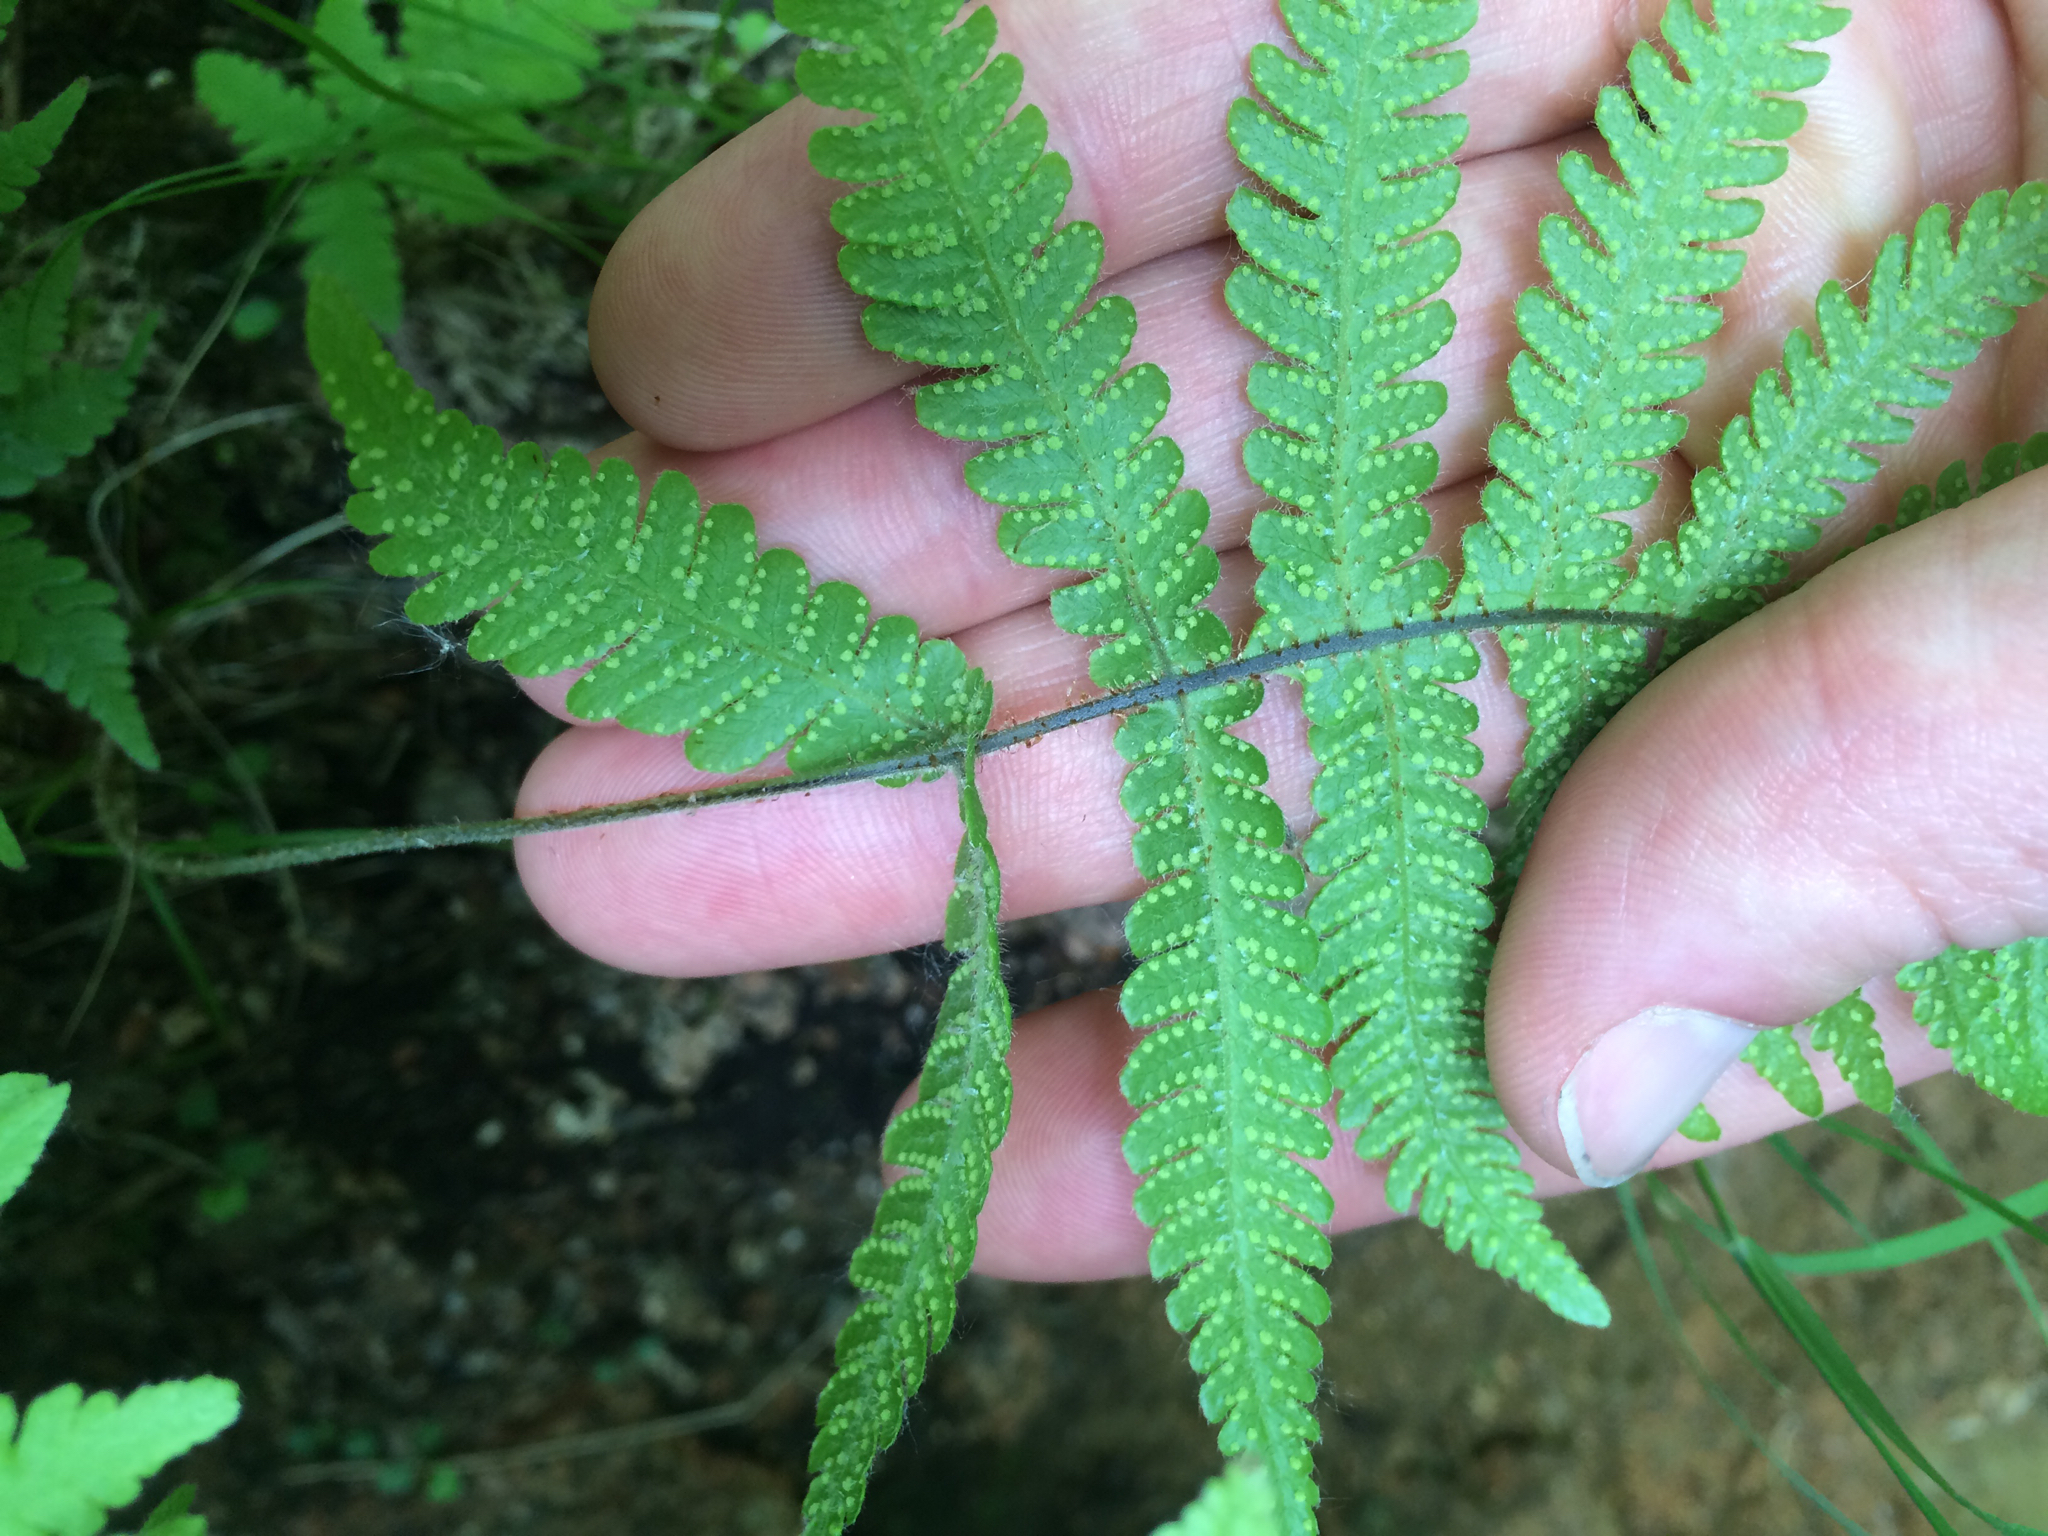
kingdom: Plantae
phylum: Tracheophyta
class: Polypodiopsida
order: Polypodiales
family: Thelypteridaceae
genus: Phegopteris
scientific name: Phegopteris connectilis
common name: Beech fern
